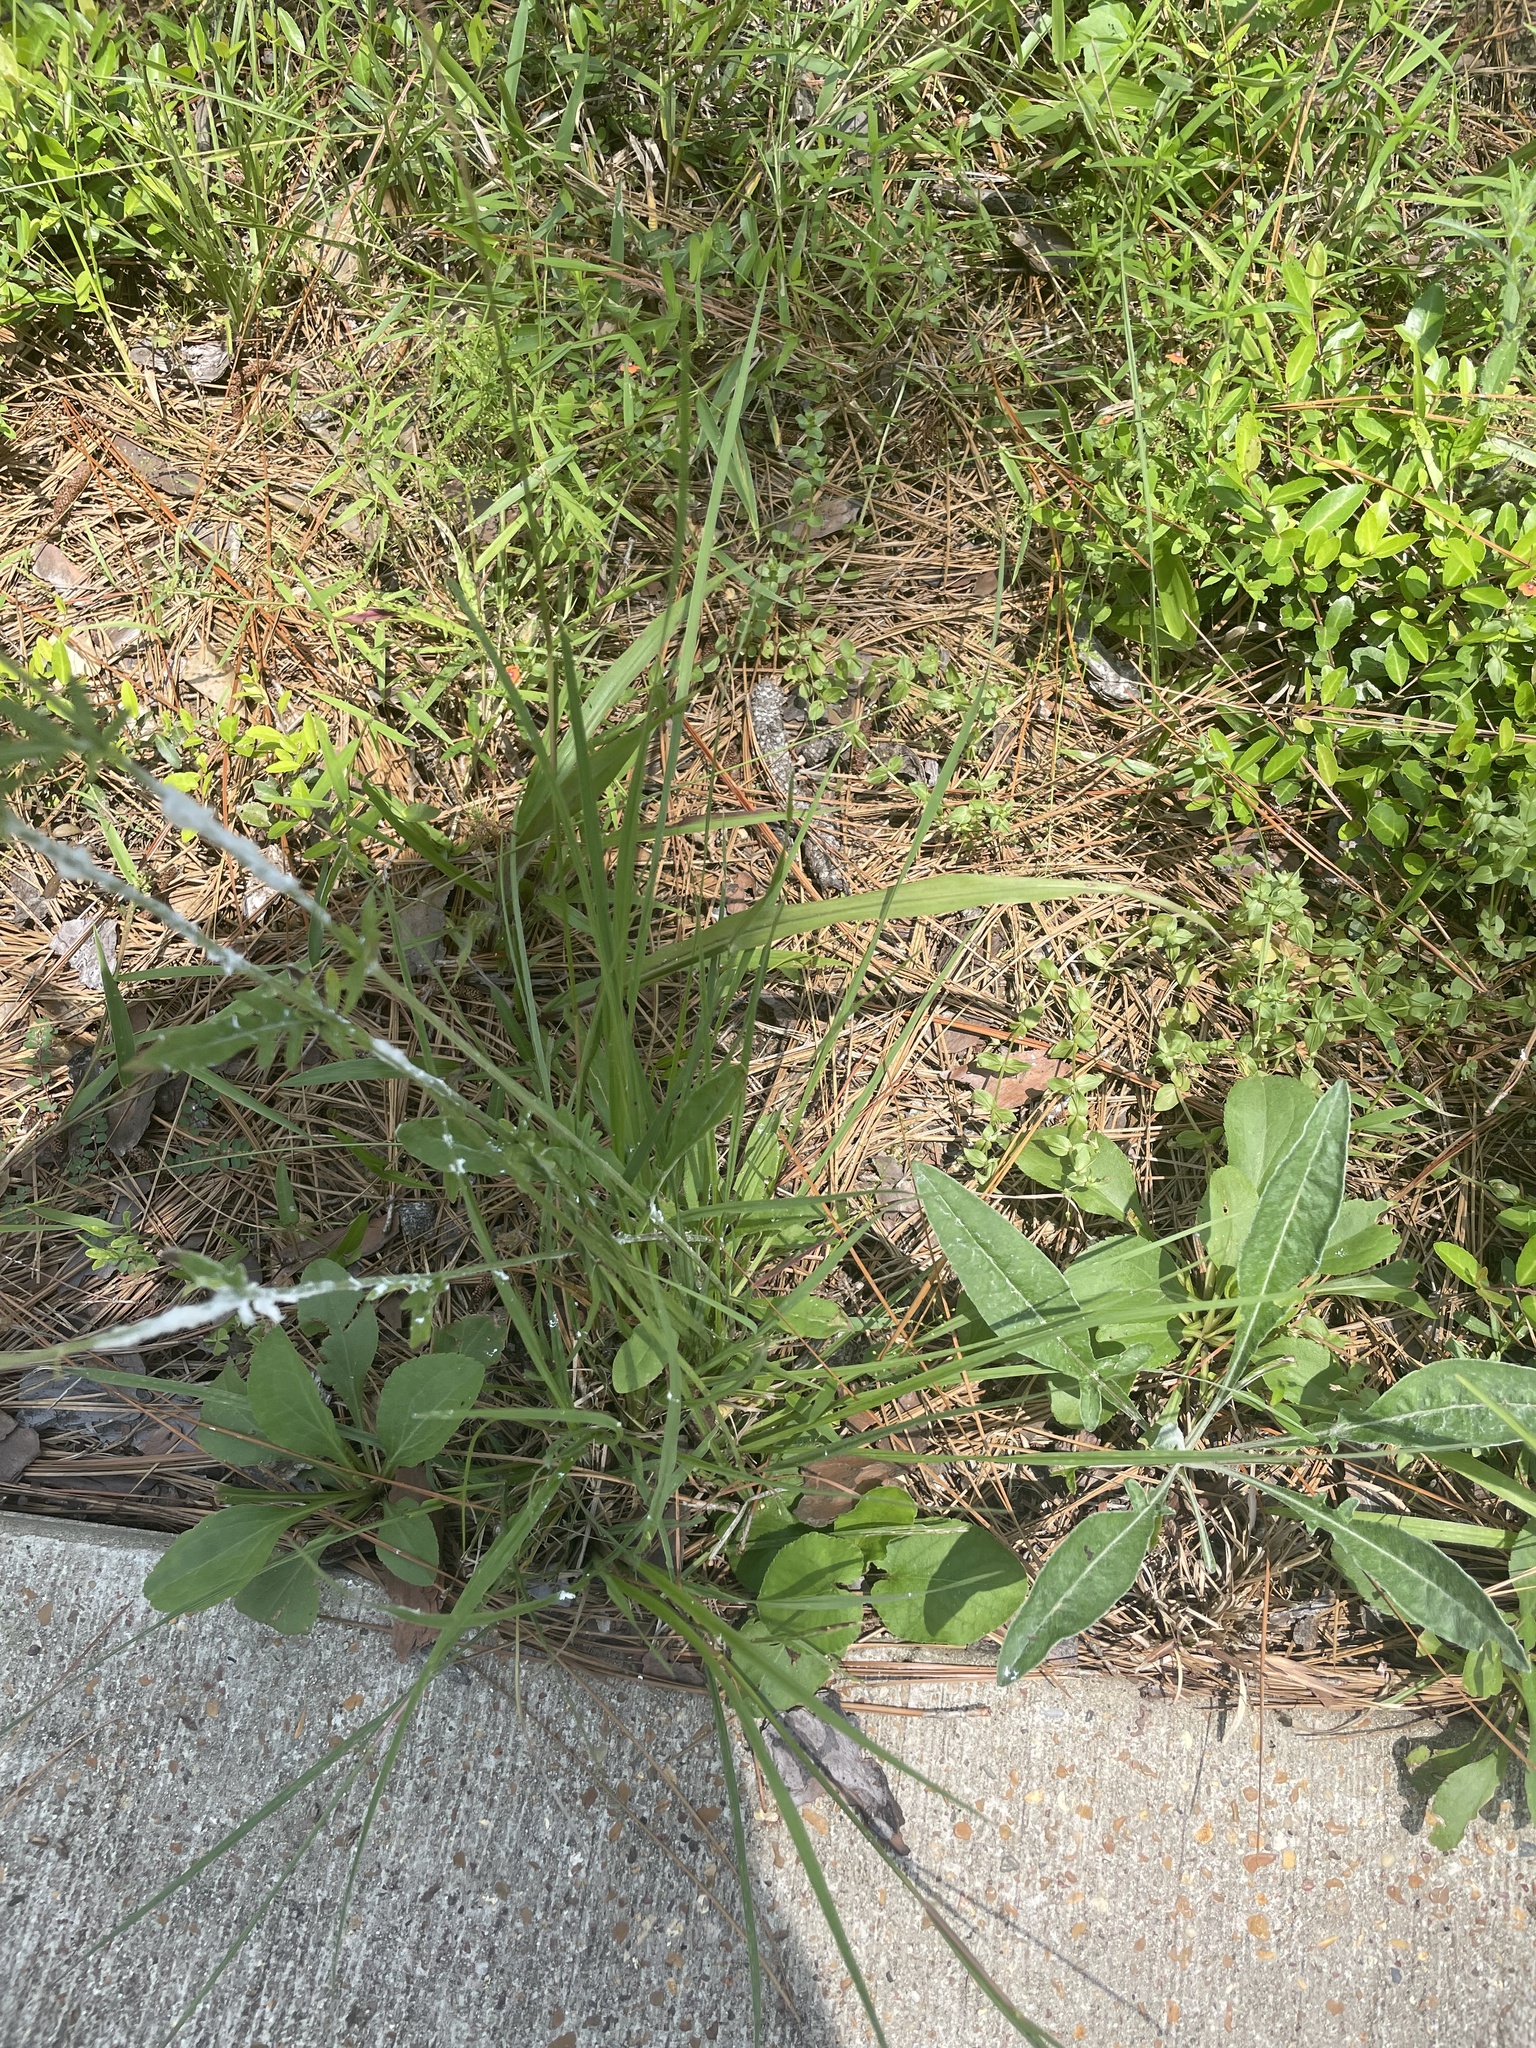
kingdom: Plantae
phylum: Tracheophyta
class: Magnoliopsida
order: Asterales
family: Asteraceae
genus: Hymenopappus
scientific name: Hymenopappus artemisiifolius
